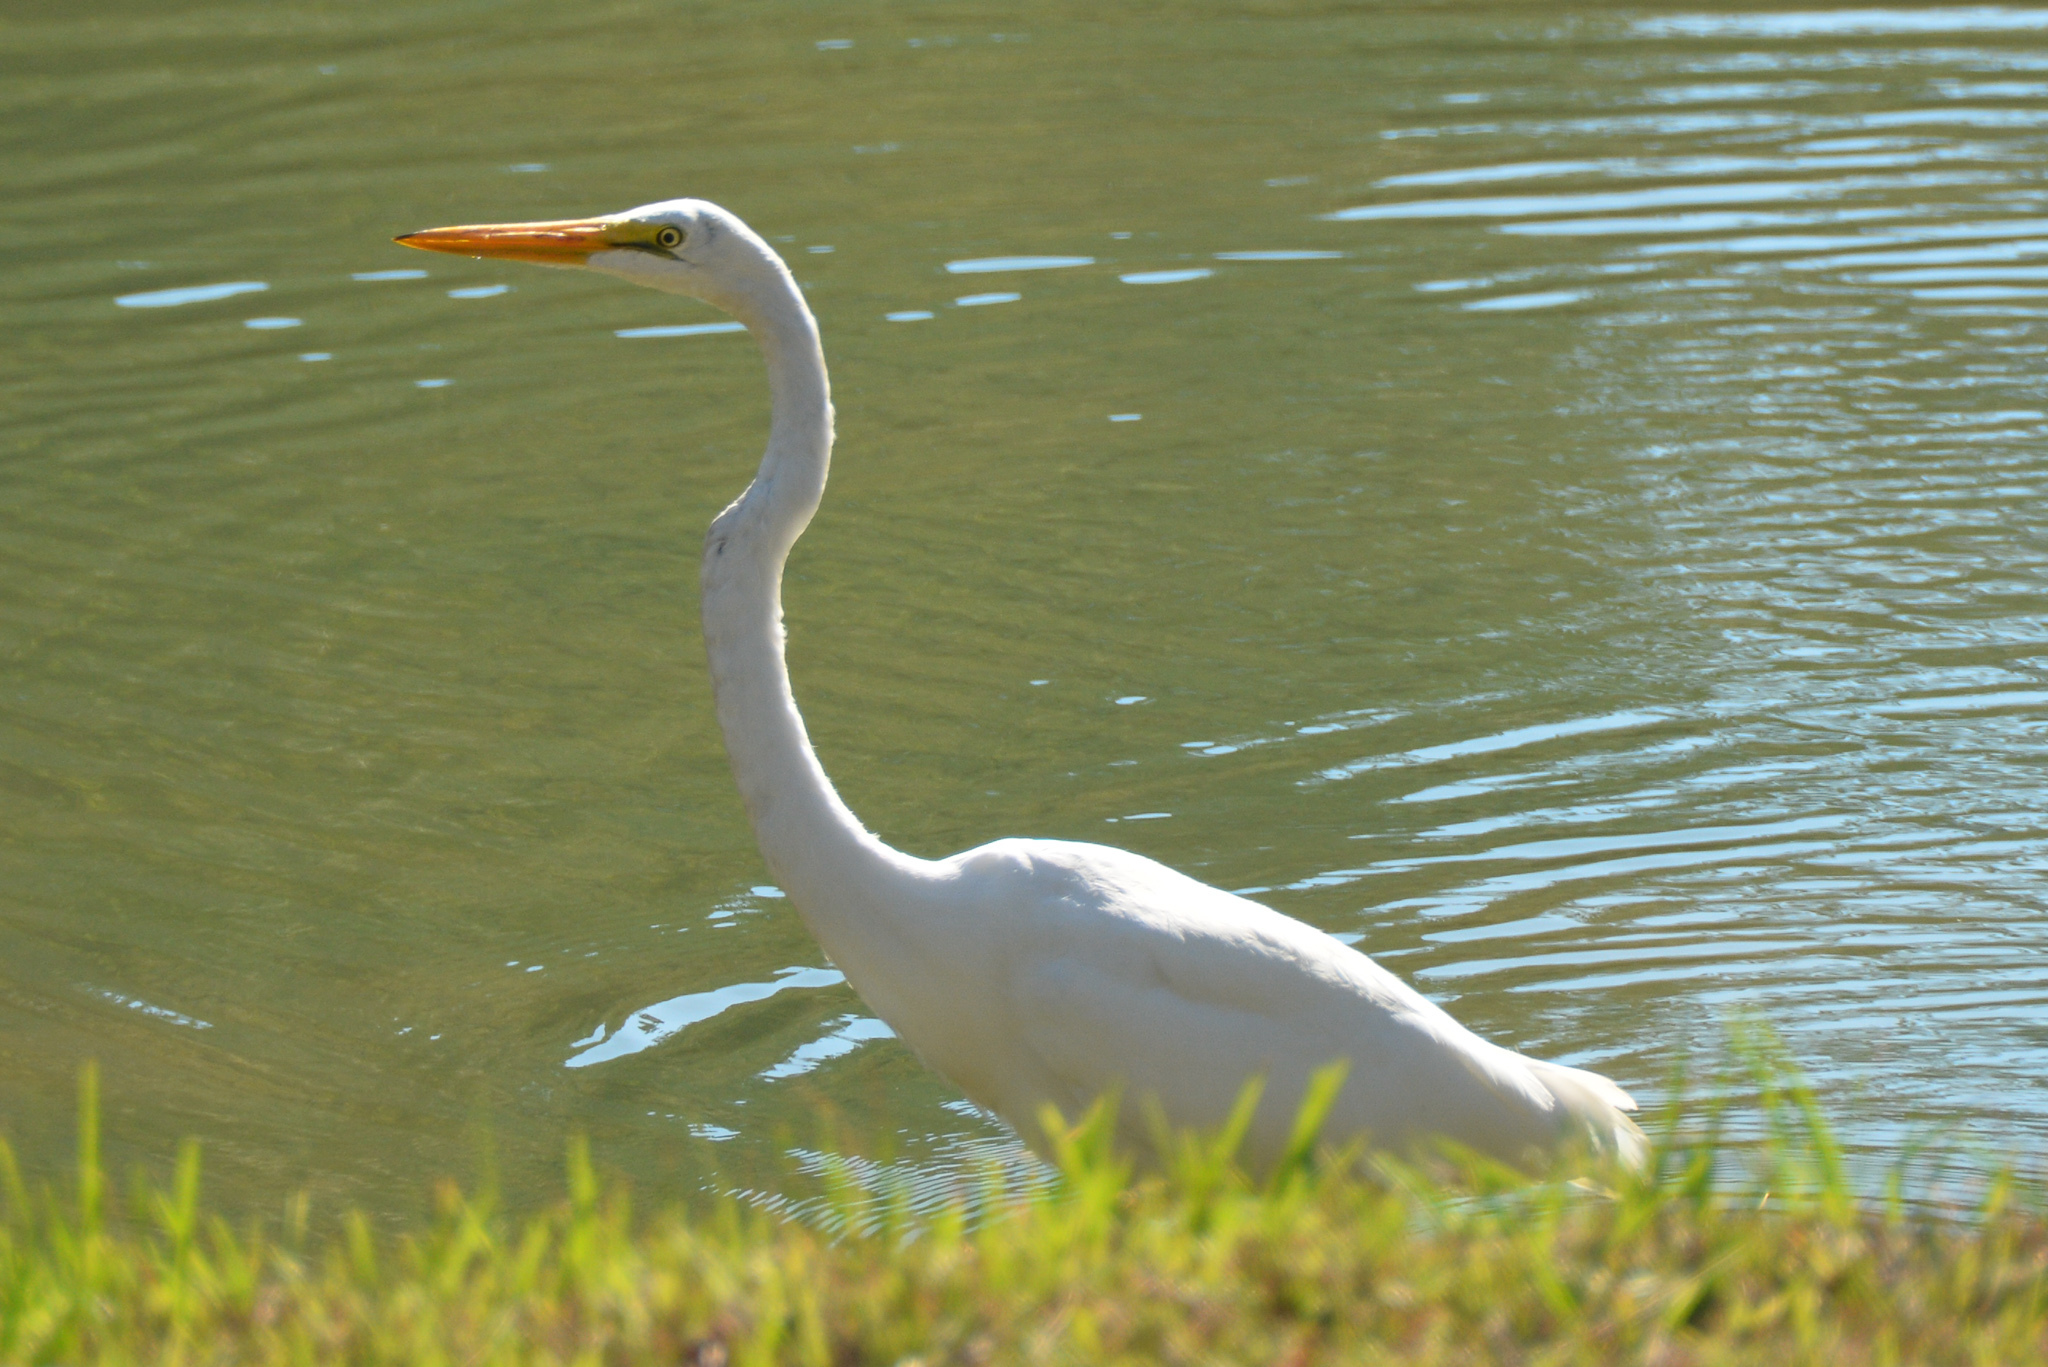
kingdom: Animalia
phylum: Chordata
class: Aves
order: Pelecaniformes
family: Ardeidae
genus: Ardea
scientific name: Ardea alba
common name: Great egret
